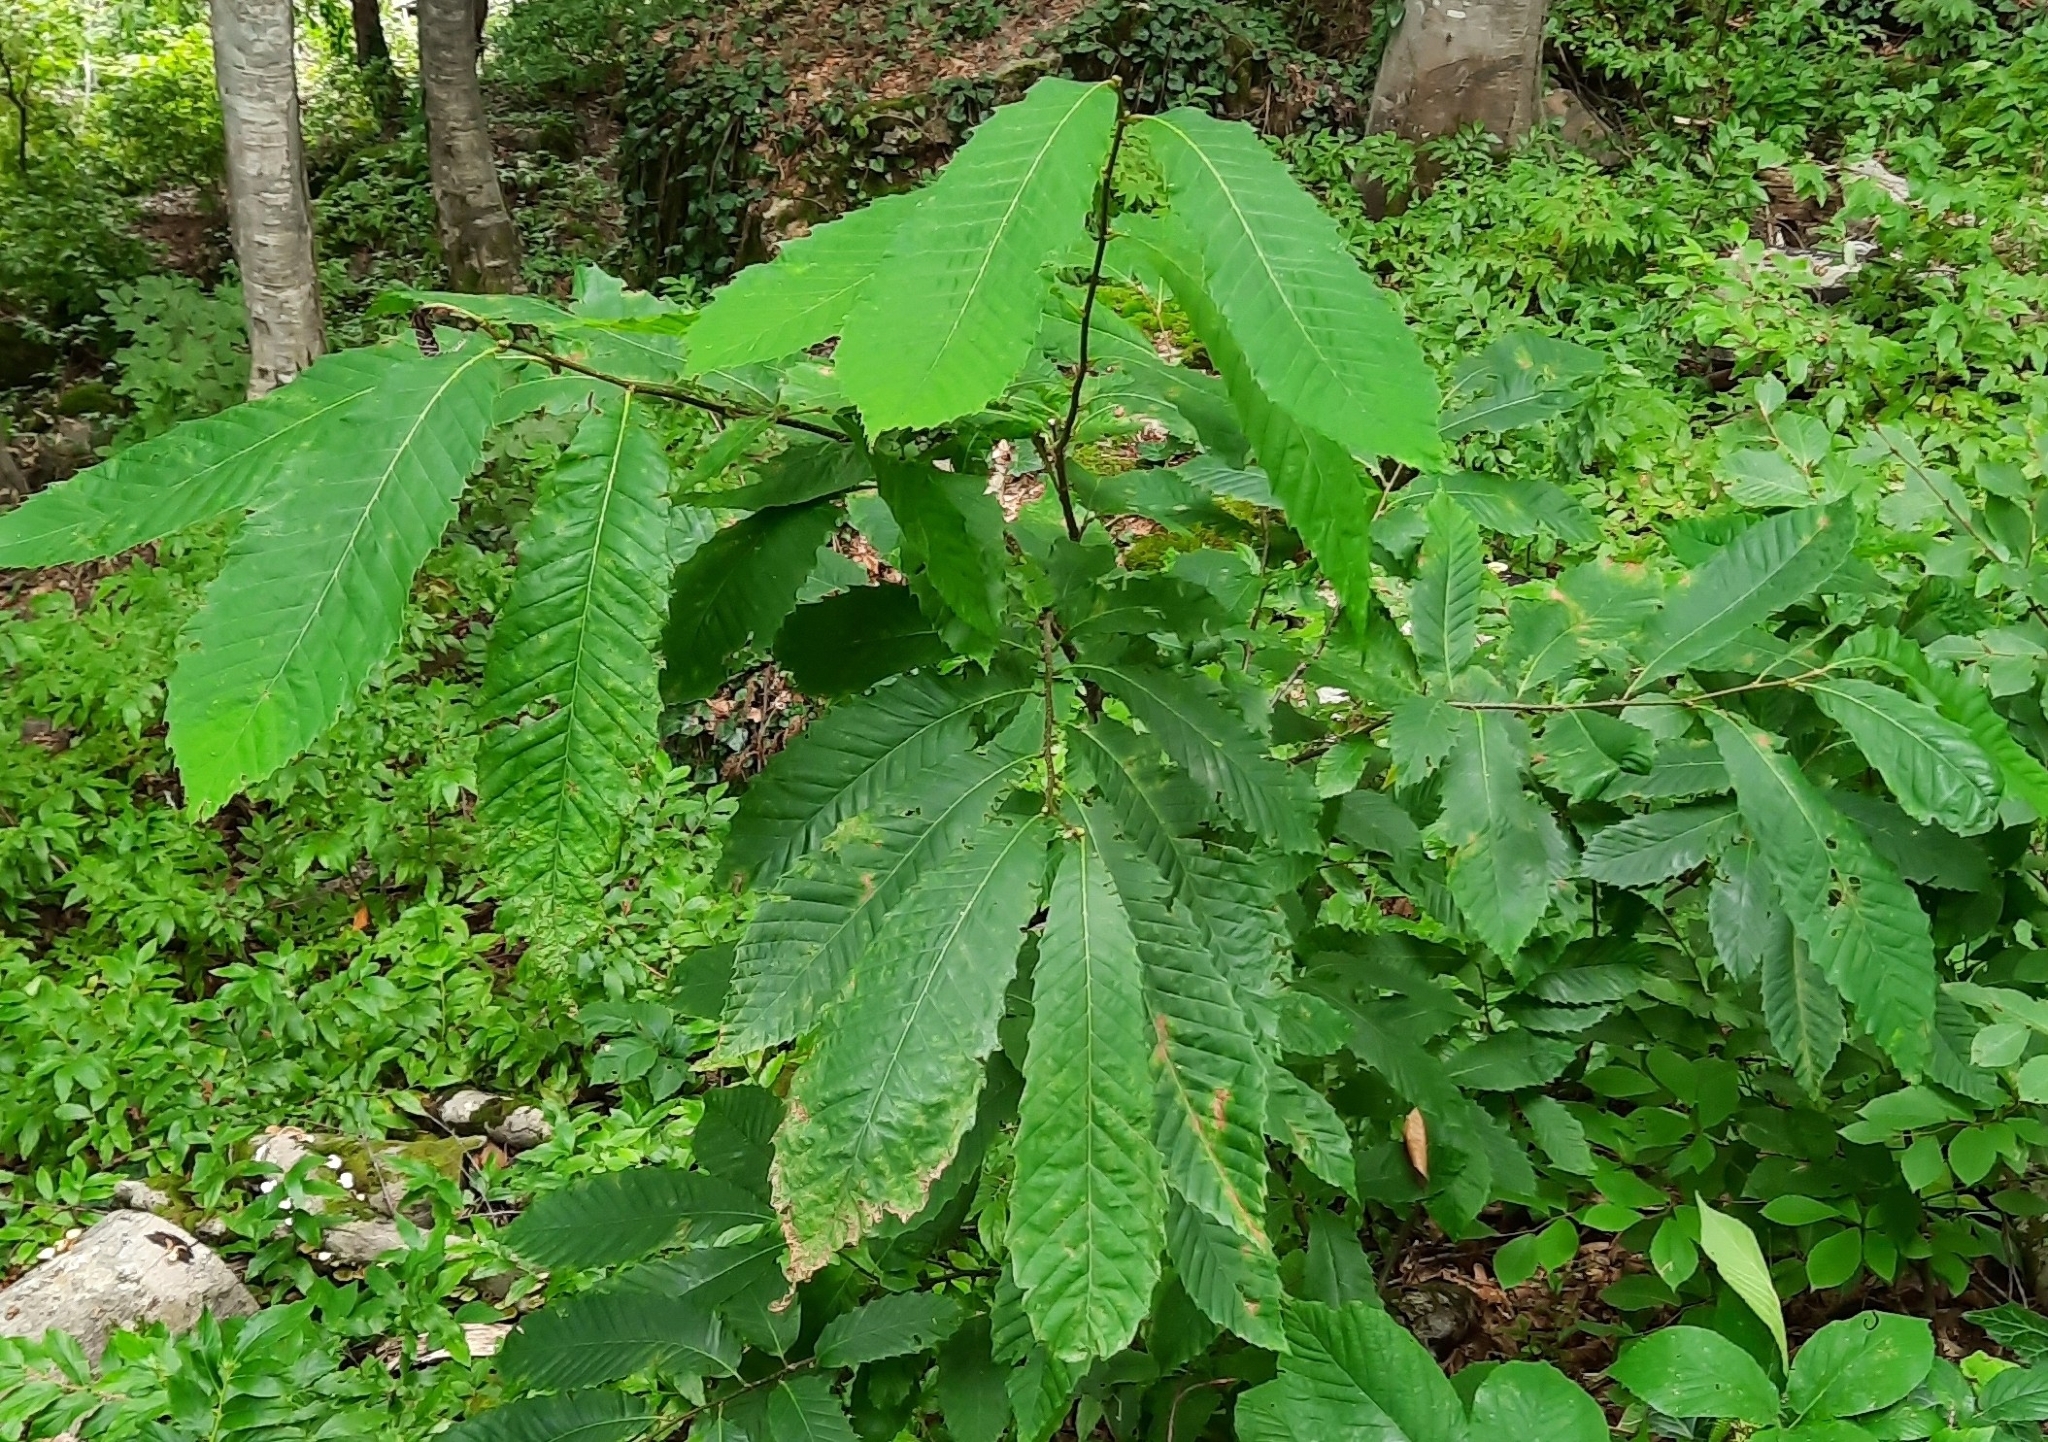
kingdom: Plantae
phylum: Tracheophyta
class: Magnoliopsida
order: Fagales
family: Fagaceae
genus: Castanea
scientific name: Castanea sativa
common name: Sweet chestnut
